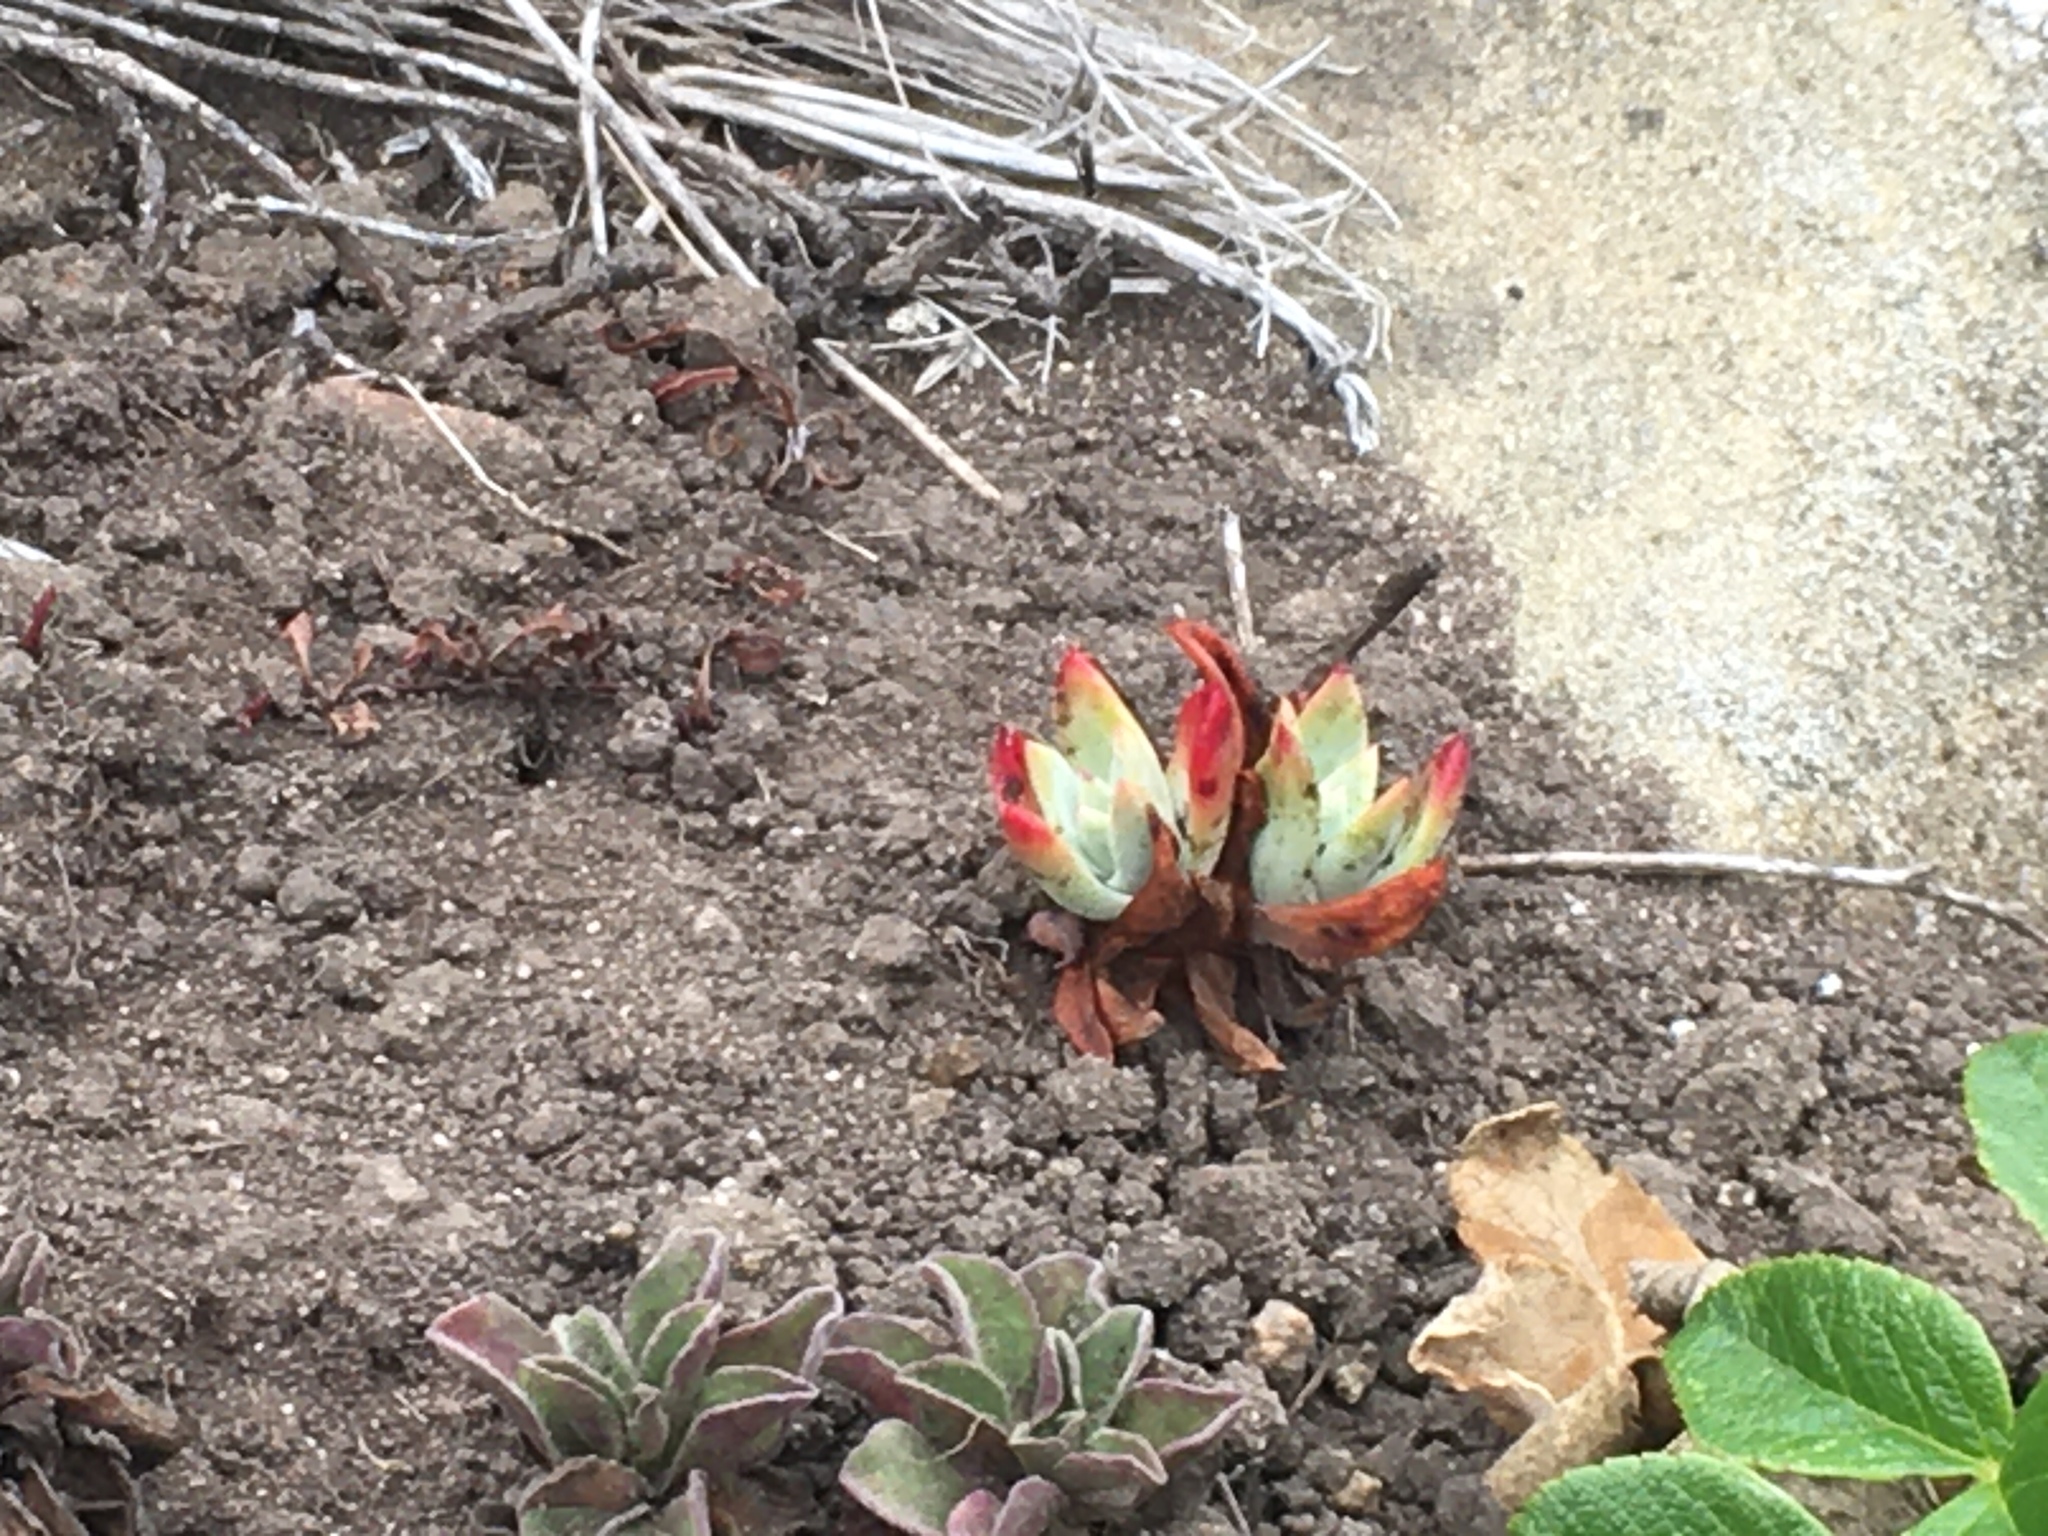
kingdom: Plantae
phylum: Tracheophyta
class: Magnoliopsida
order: Saxifragales
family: Crassulaceae
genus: Dudleya
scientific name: Dudleya farinosa
